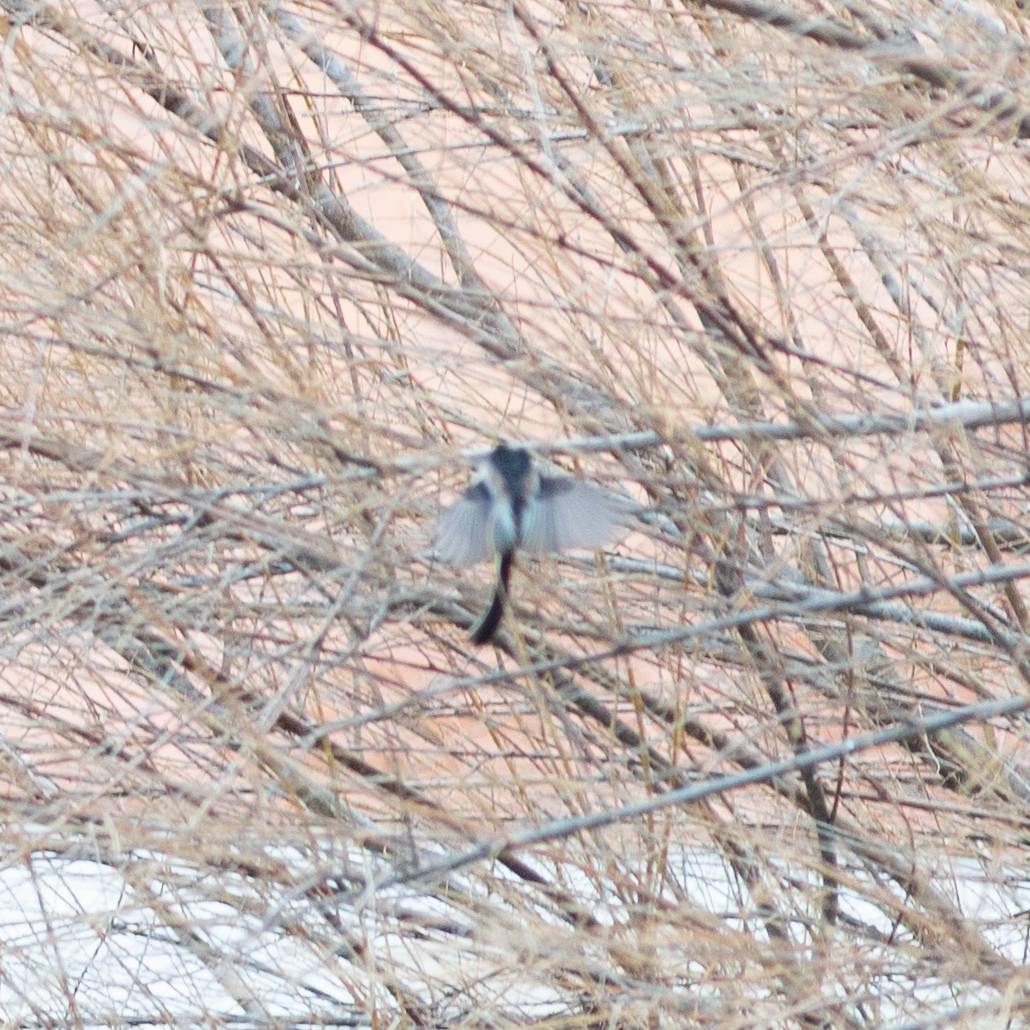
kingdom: Animalia
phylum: Chordata
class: Aves
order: Passeriformes
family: Aegithalidae
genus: Aegithalos
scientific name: Aegithalos caudatus
